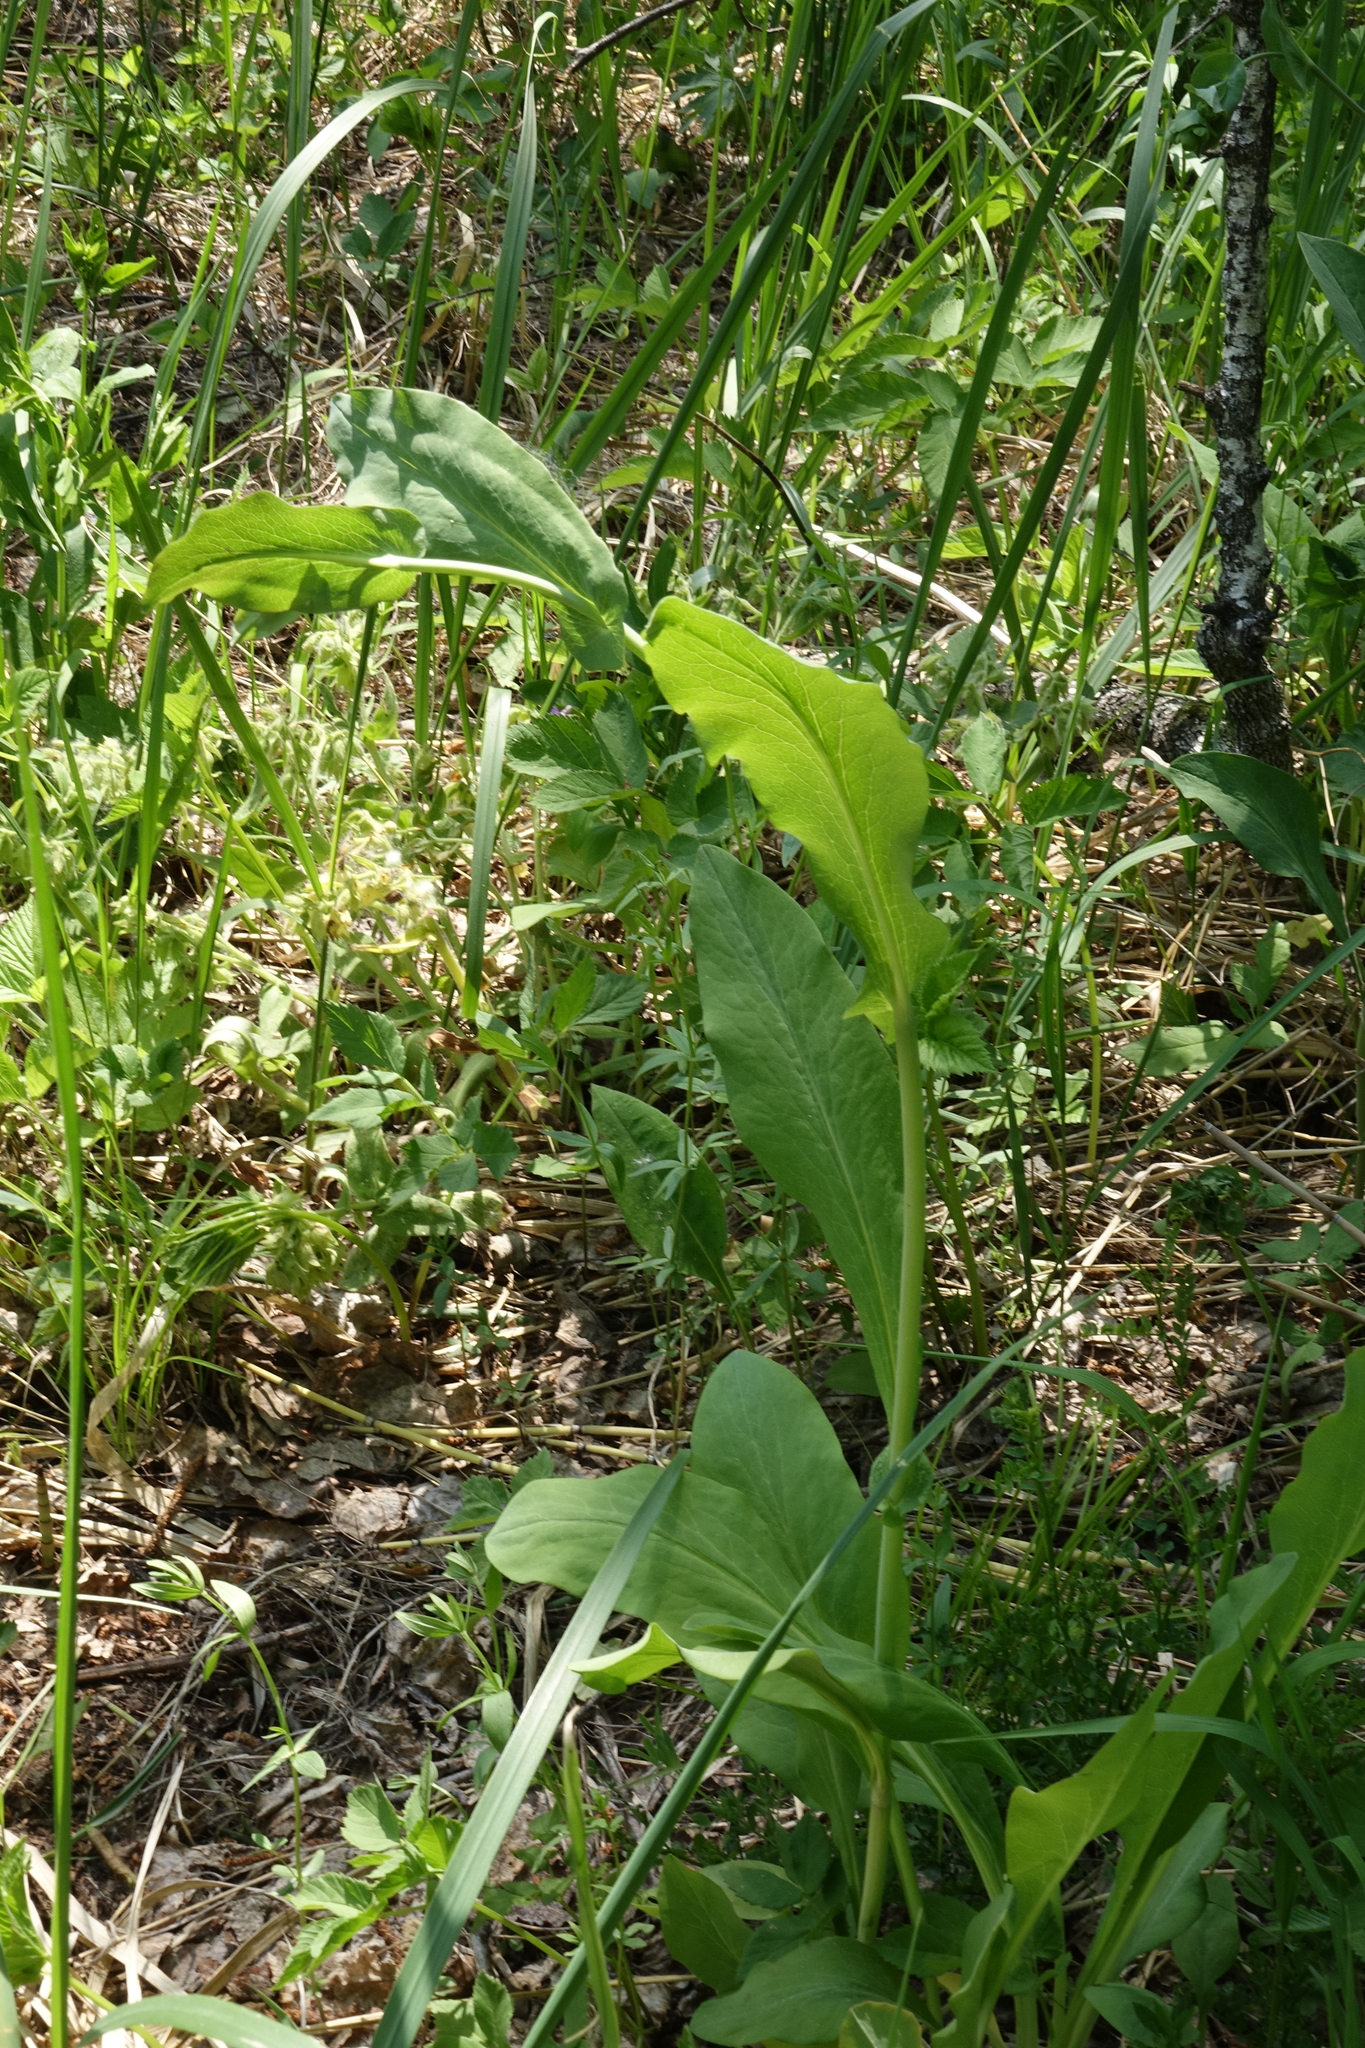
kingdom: Plantae
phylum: Tracheophyta
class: Magnoliopsida
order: Apiales
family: Apiaceae
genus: Bupleurum
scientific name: Bupleurum aureum
